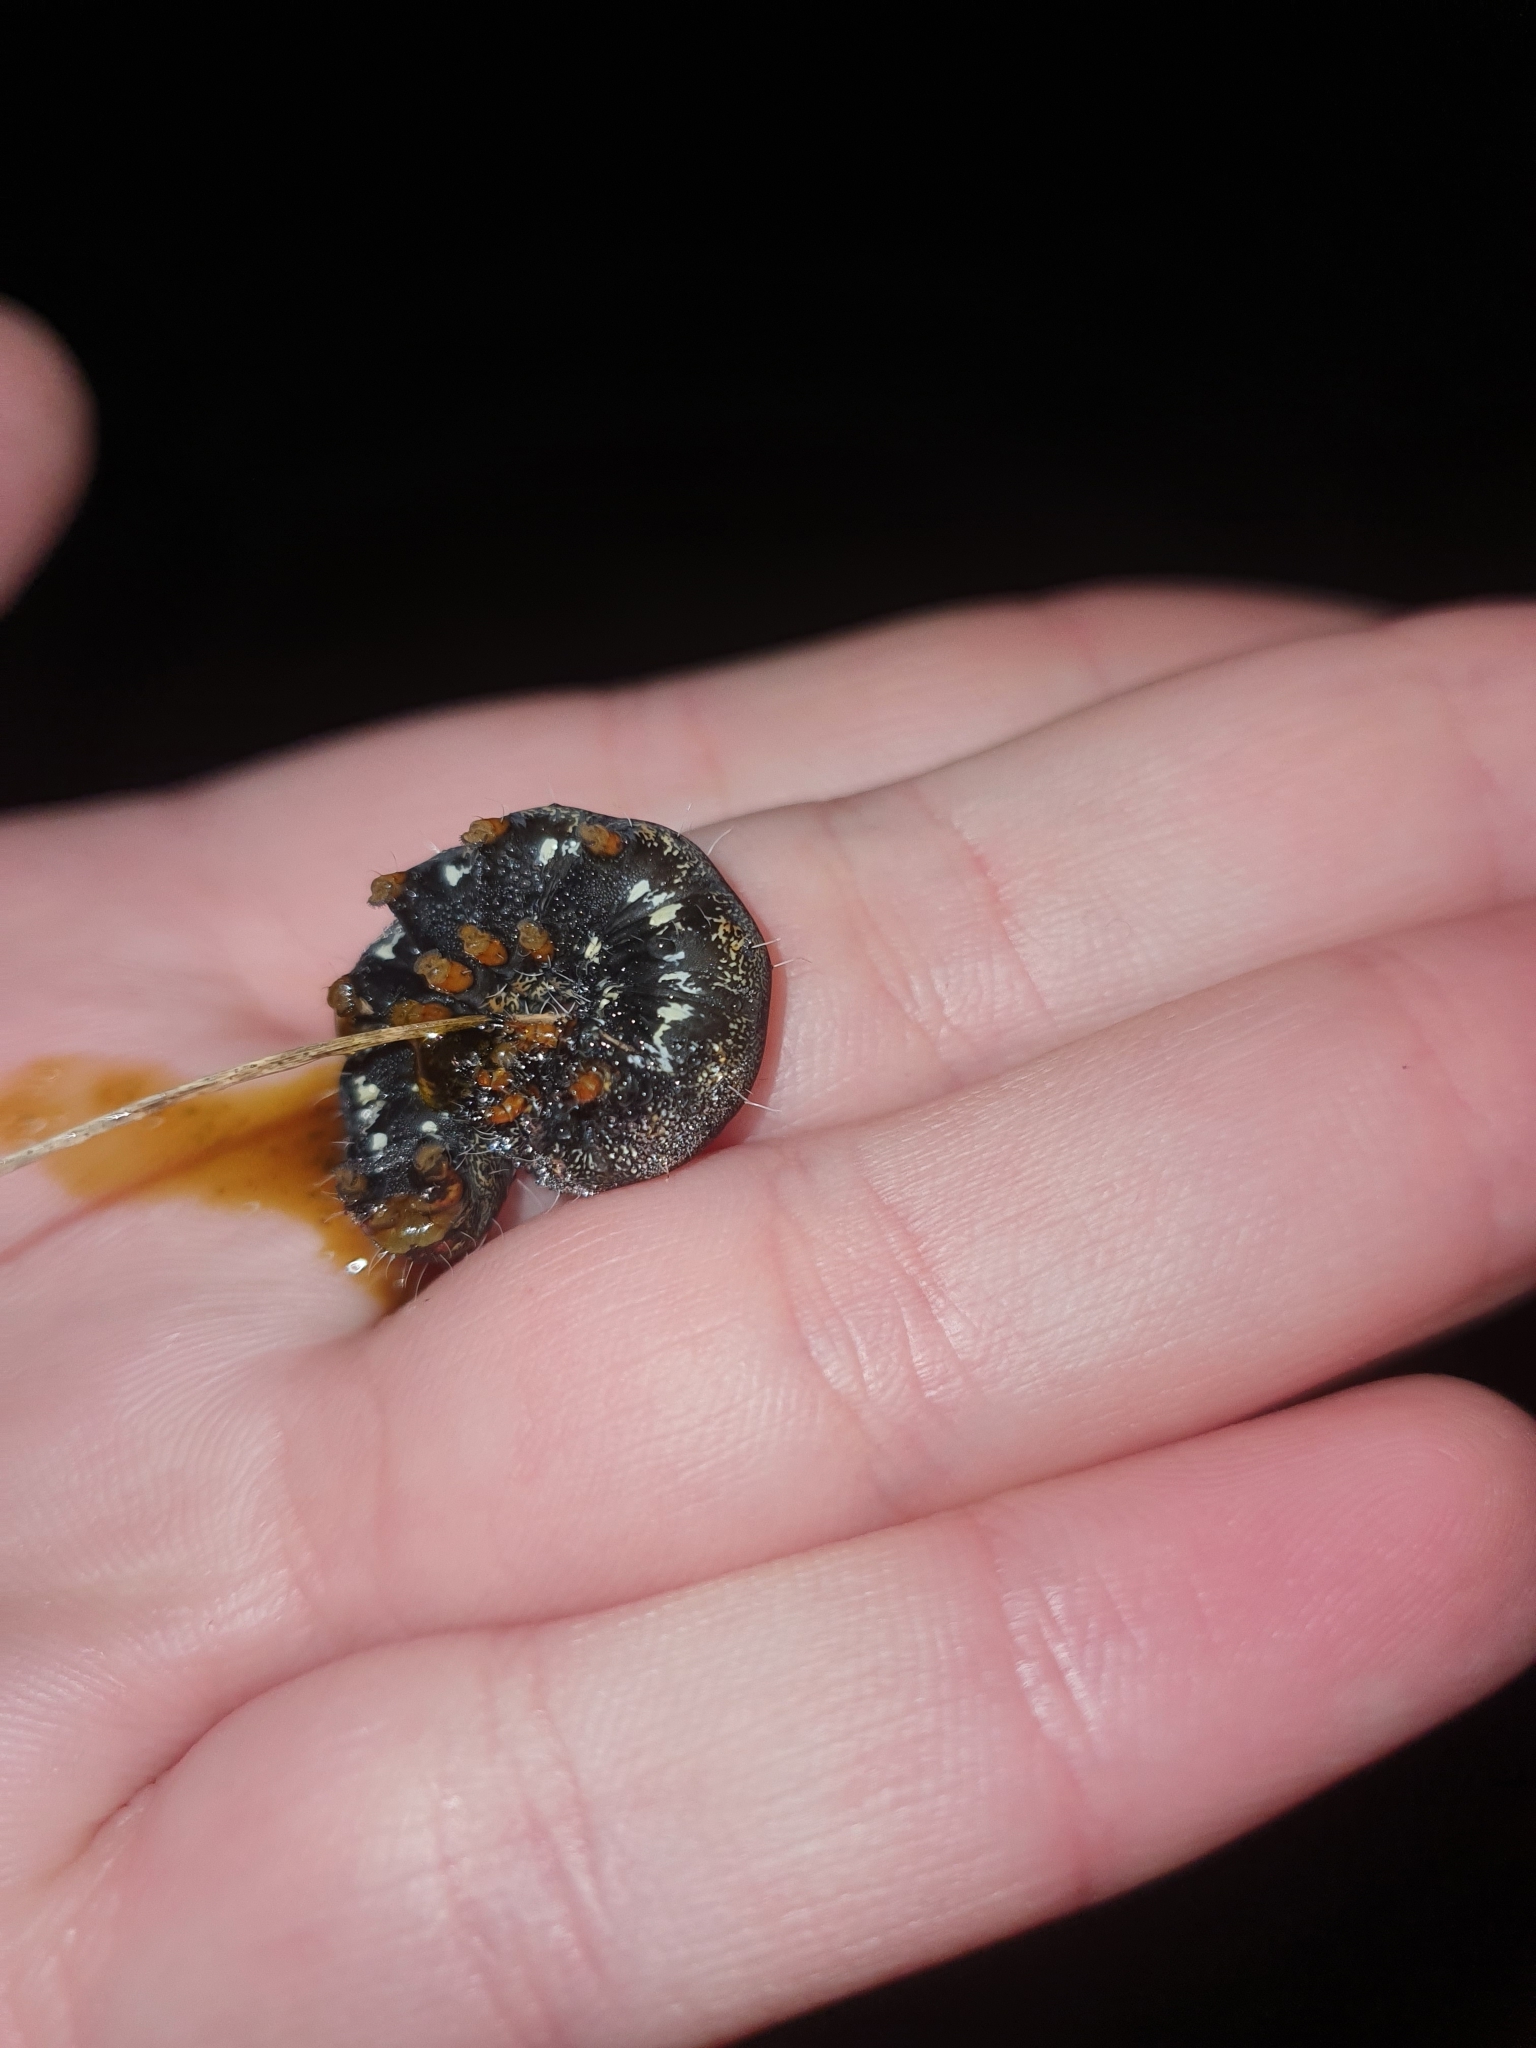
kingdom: Animalia
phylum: Arthropoda
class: Insecta
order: Lepidoptera
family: Noctuidae
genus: Apina
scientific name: Apina callisto
